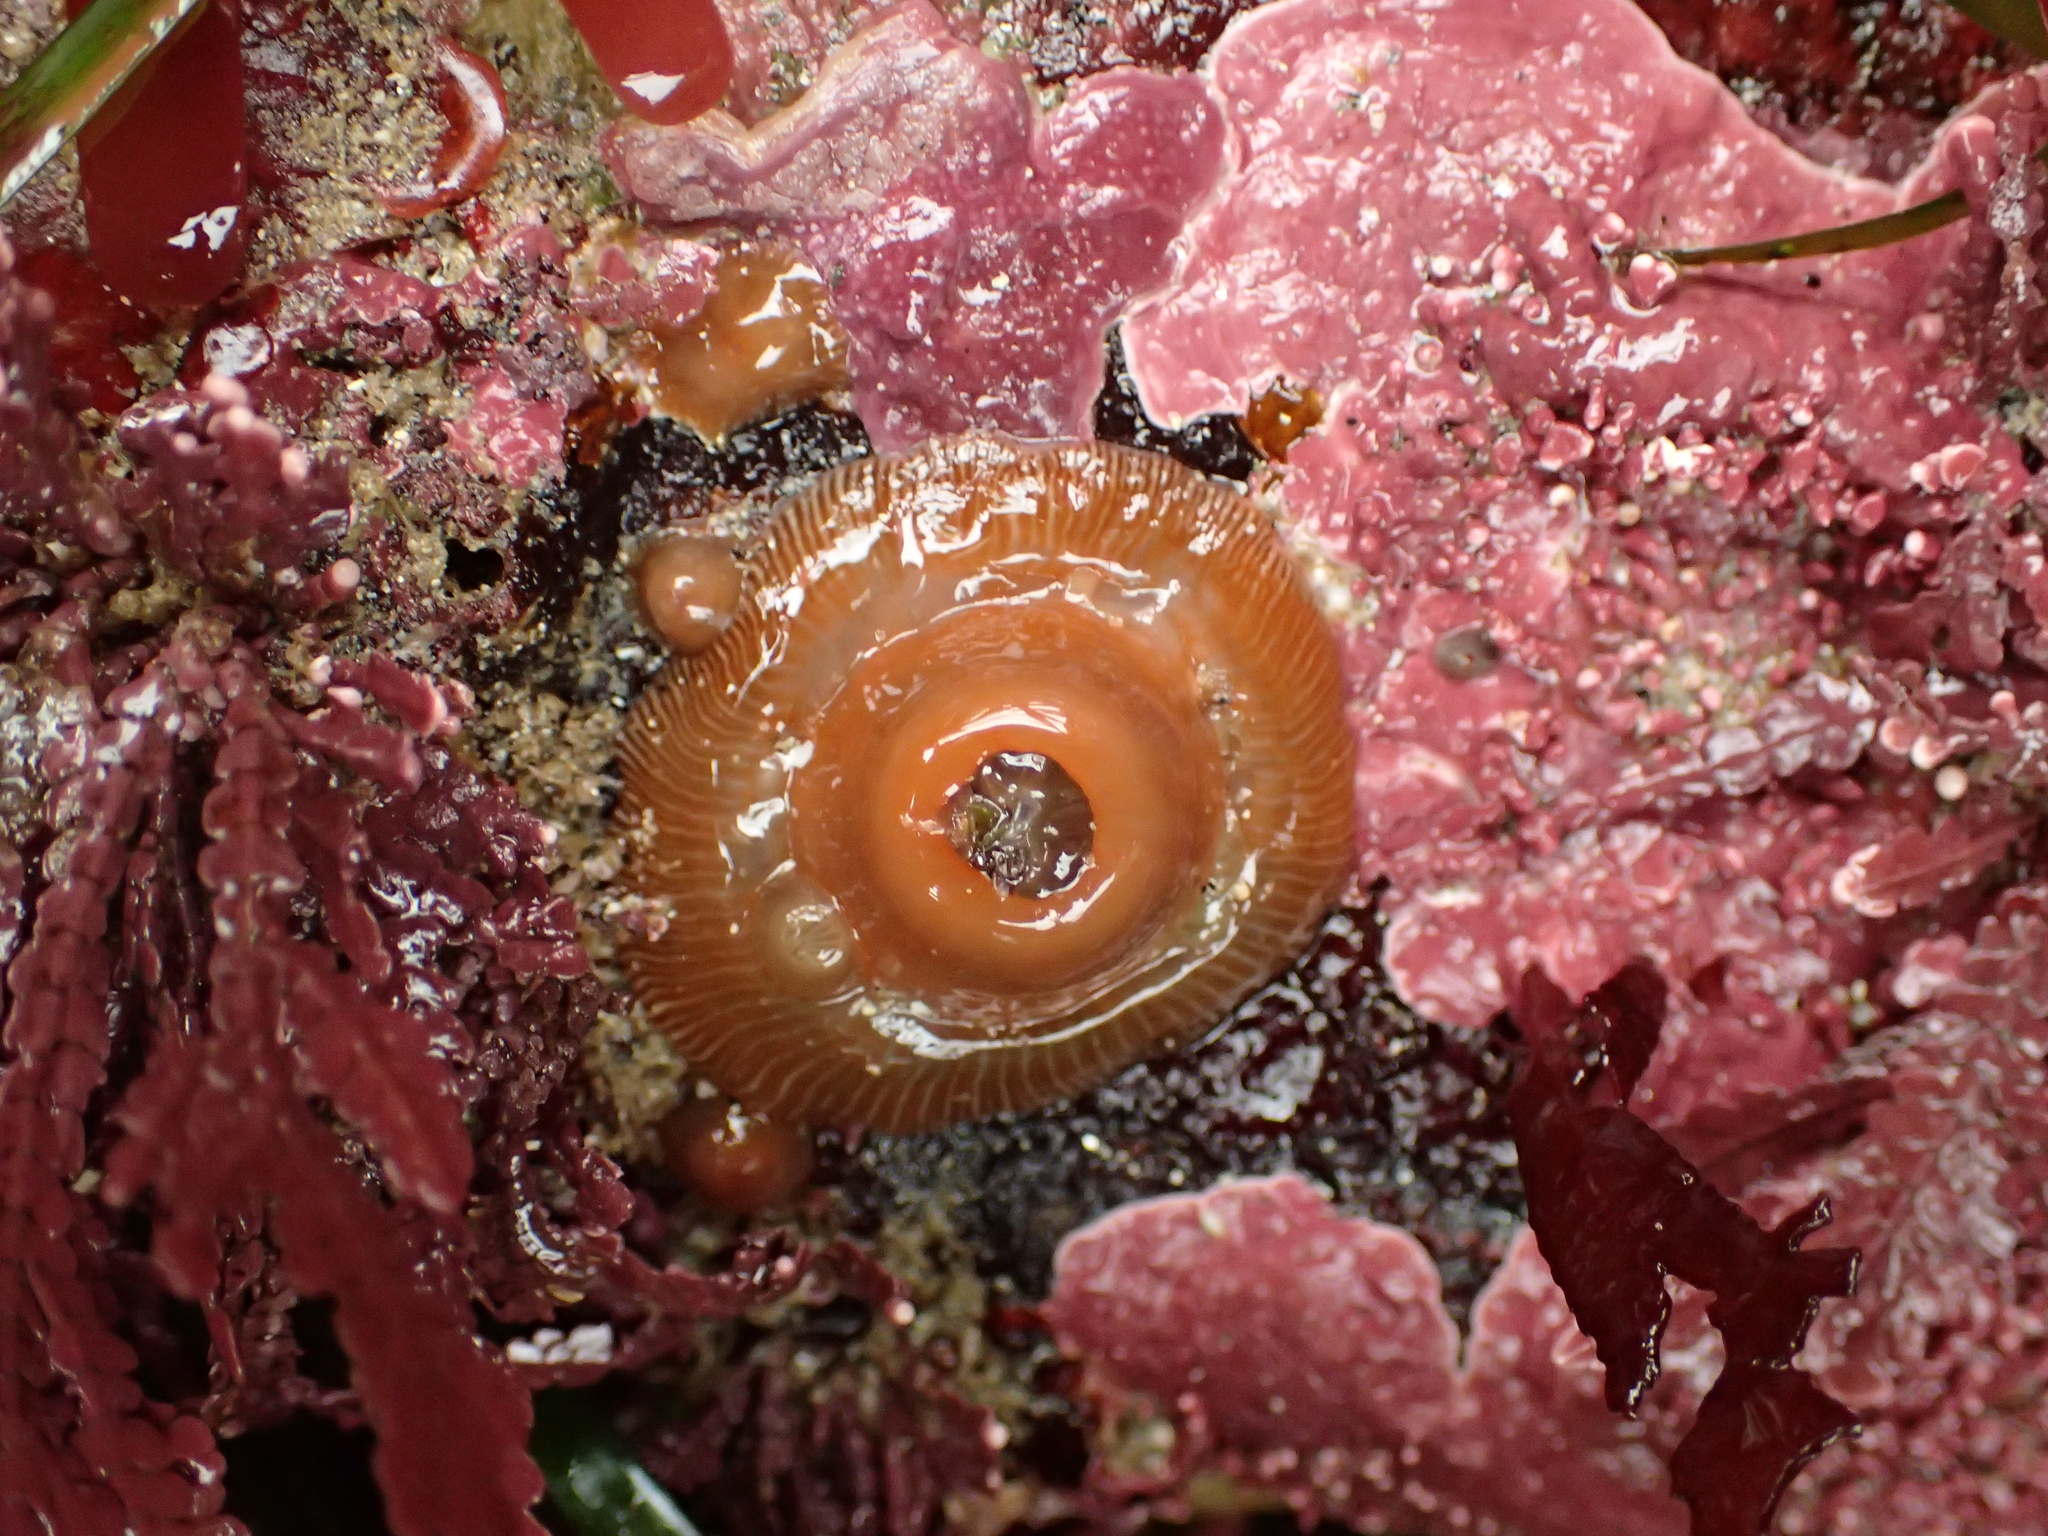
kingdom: Animalia
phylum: Cnidaria
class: Anthozoa
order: Actiniaria
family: Actiniidae
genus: Epiactis
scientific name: Epiactis prolifera
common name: Brooding anemone
